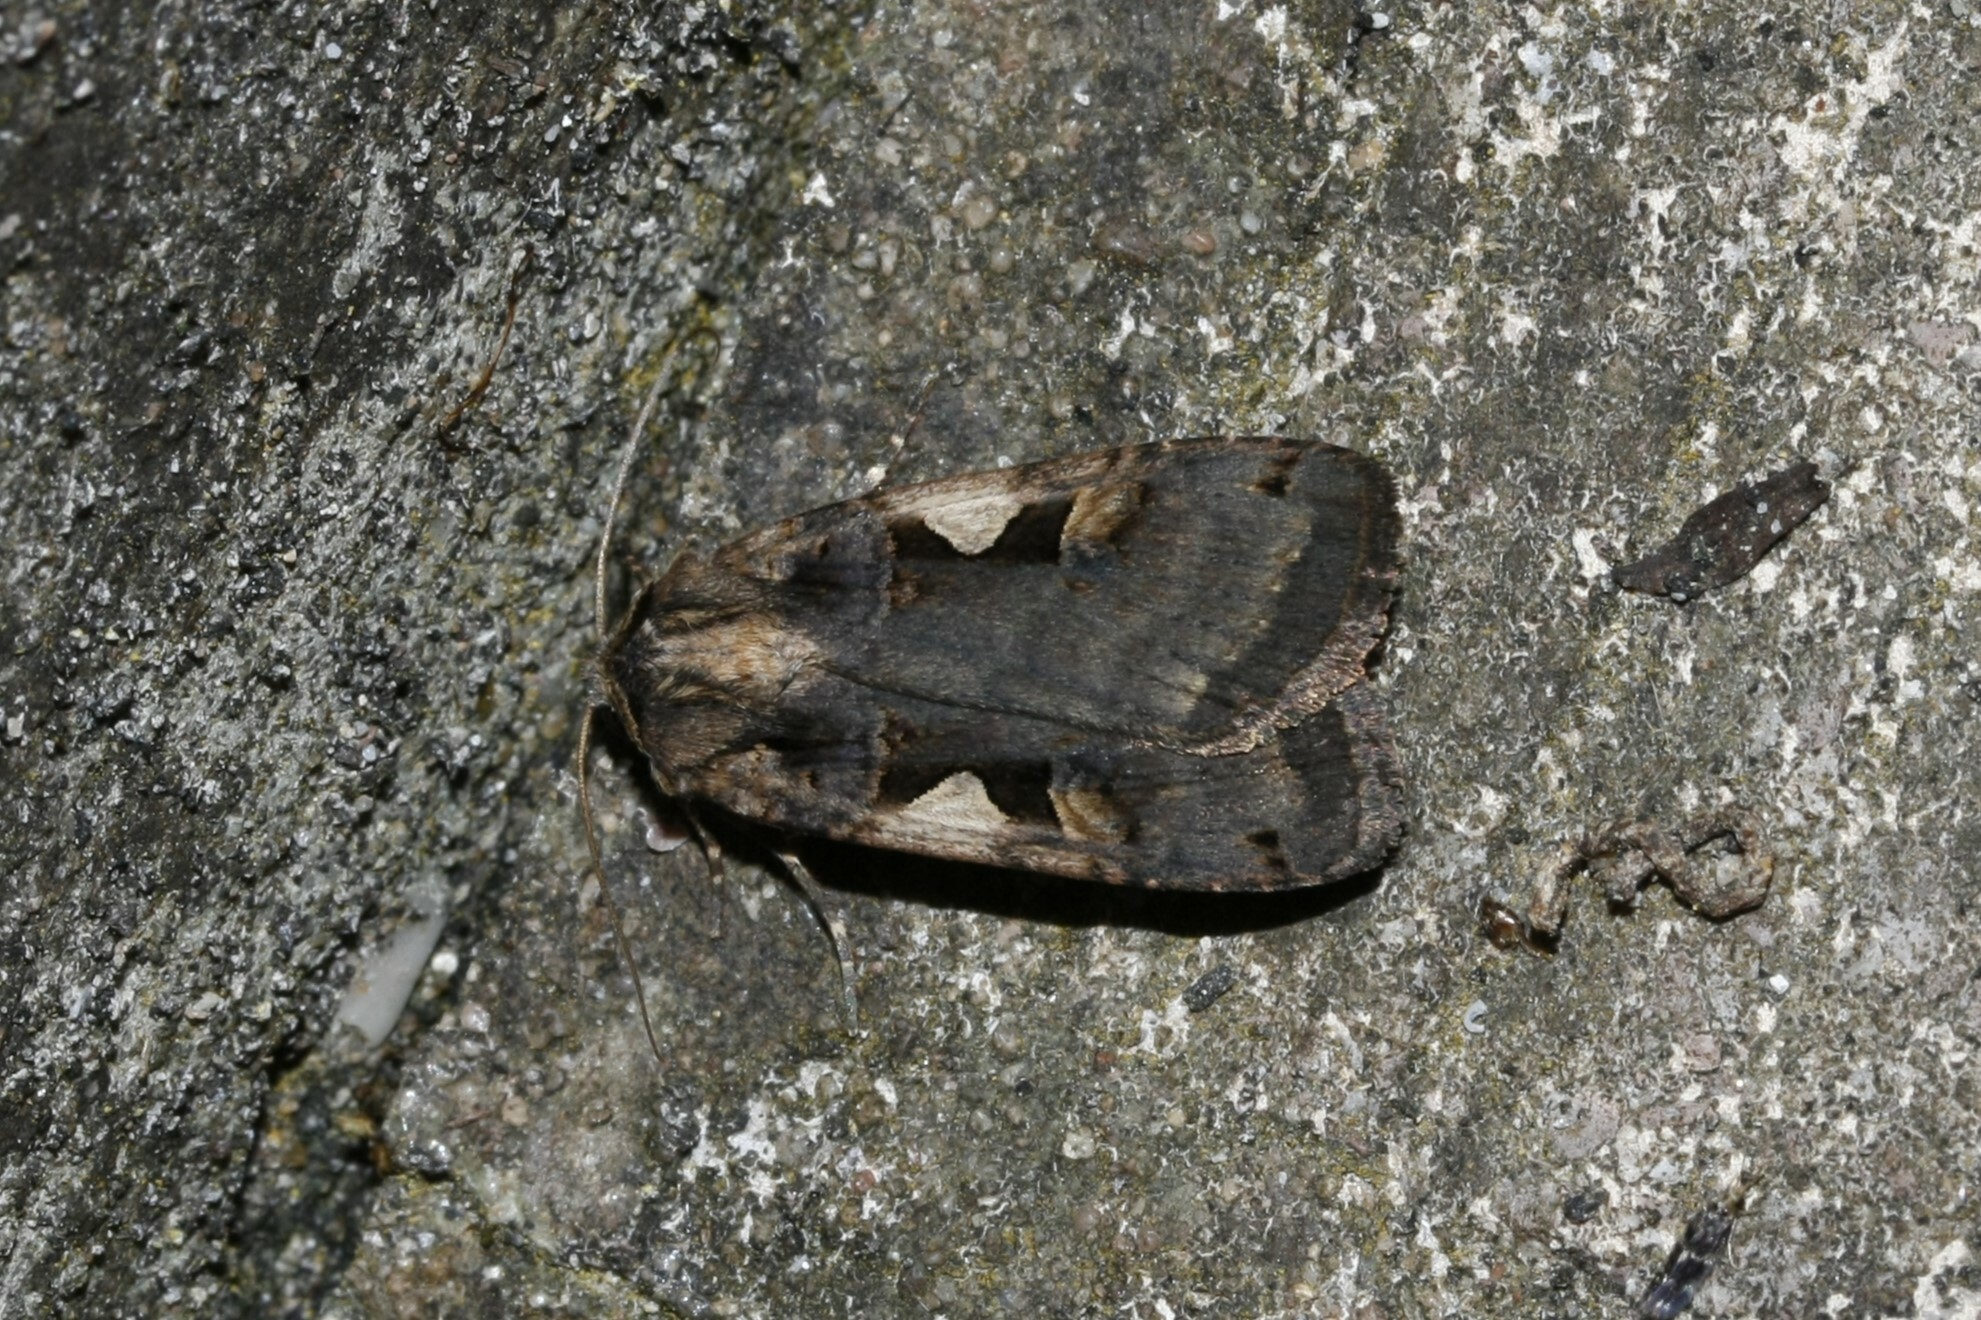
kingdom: Animalia
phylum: Arthropoda
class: Insecta
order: Lepidoptera
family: Noctuidae
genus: Xestia
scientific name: Xestia c-nigrum
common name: Setaceous hebrew character
